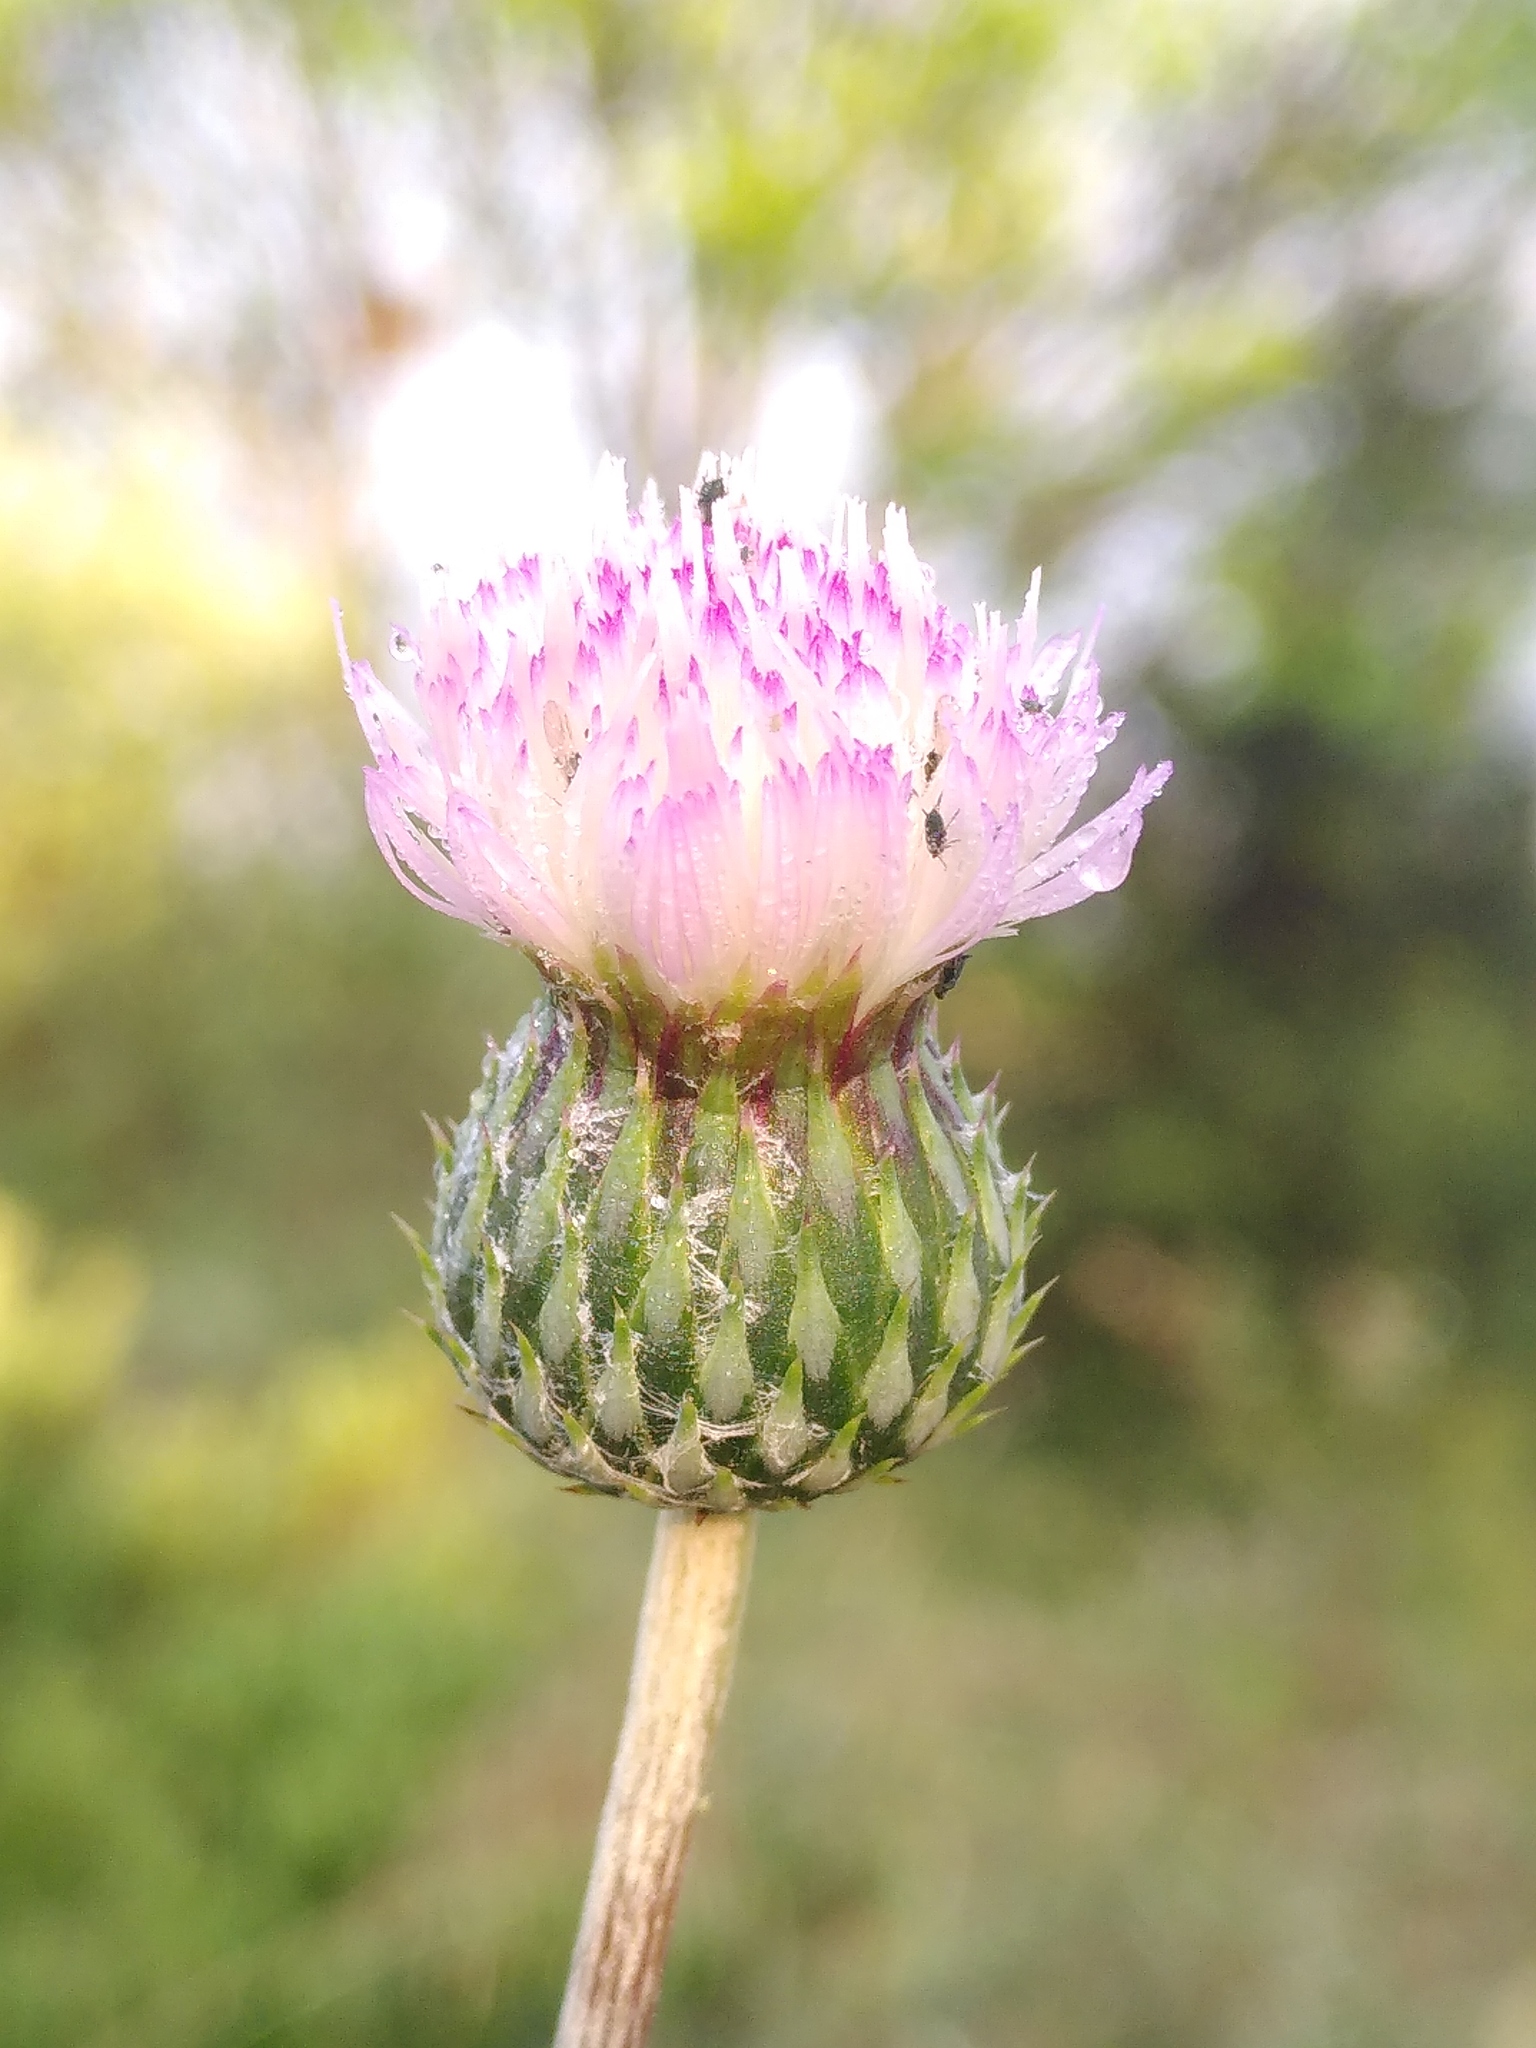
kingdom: Plantae
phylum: Tracheophyta
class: Magnoliopsida
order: Asterales
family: Asteraceae
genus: Tyrimnus
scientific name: Tyrimnus leucographus
